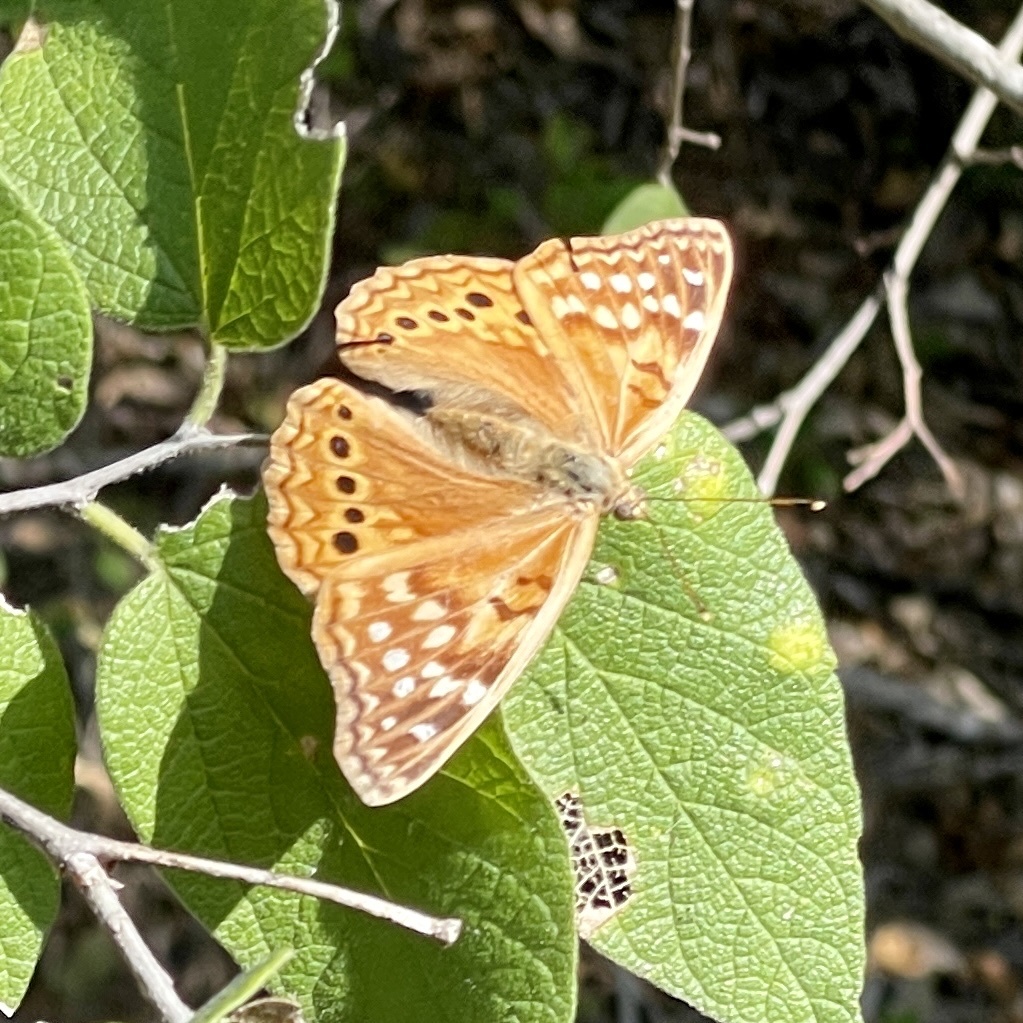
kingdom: Animalia
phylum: Arthropoda
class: Insecta
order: Lepidoptera
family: Nymphalidae
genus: Asterocampa
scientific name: Asterocampa clyton
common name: Tawny emperor
